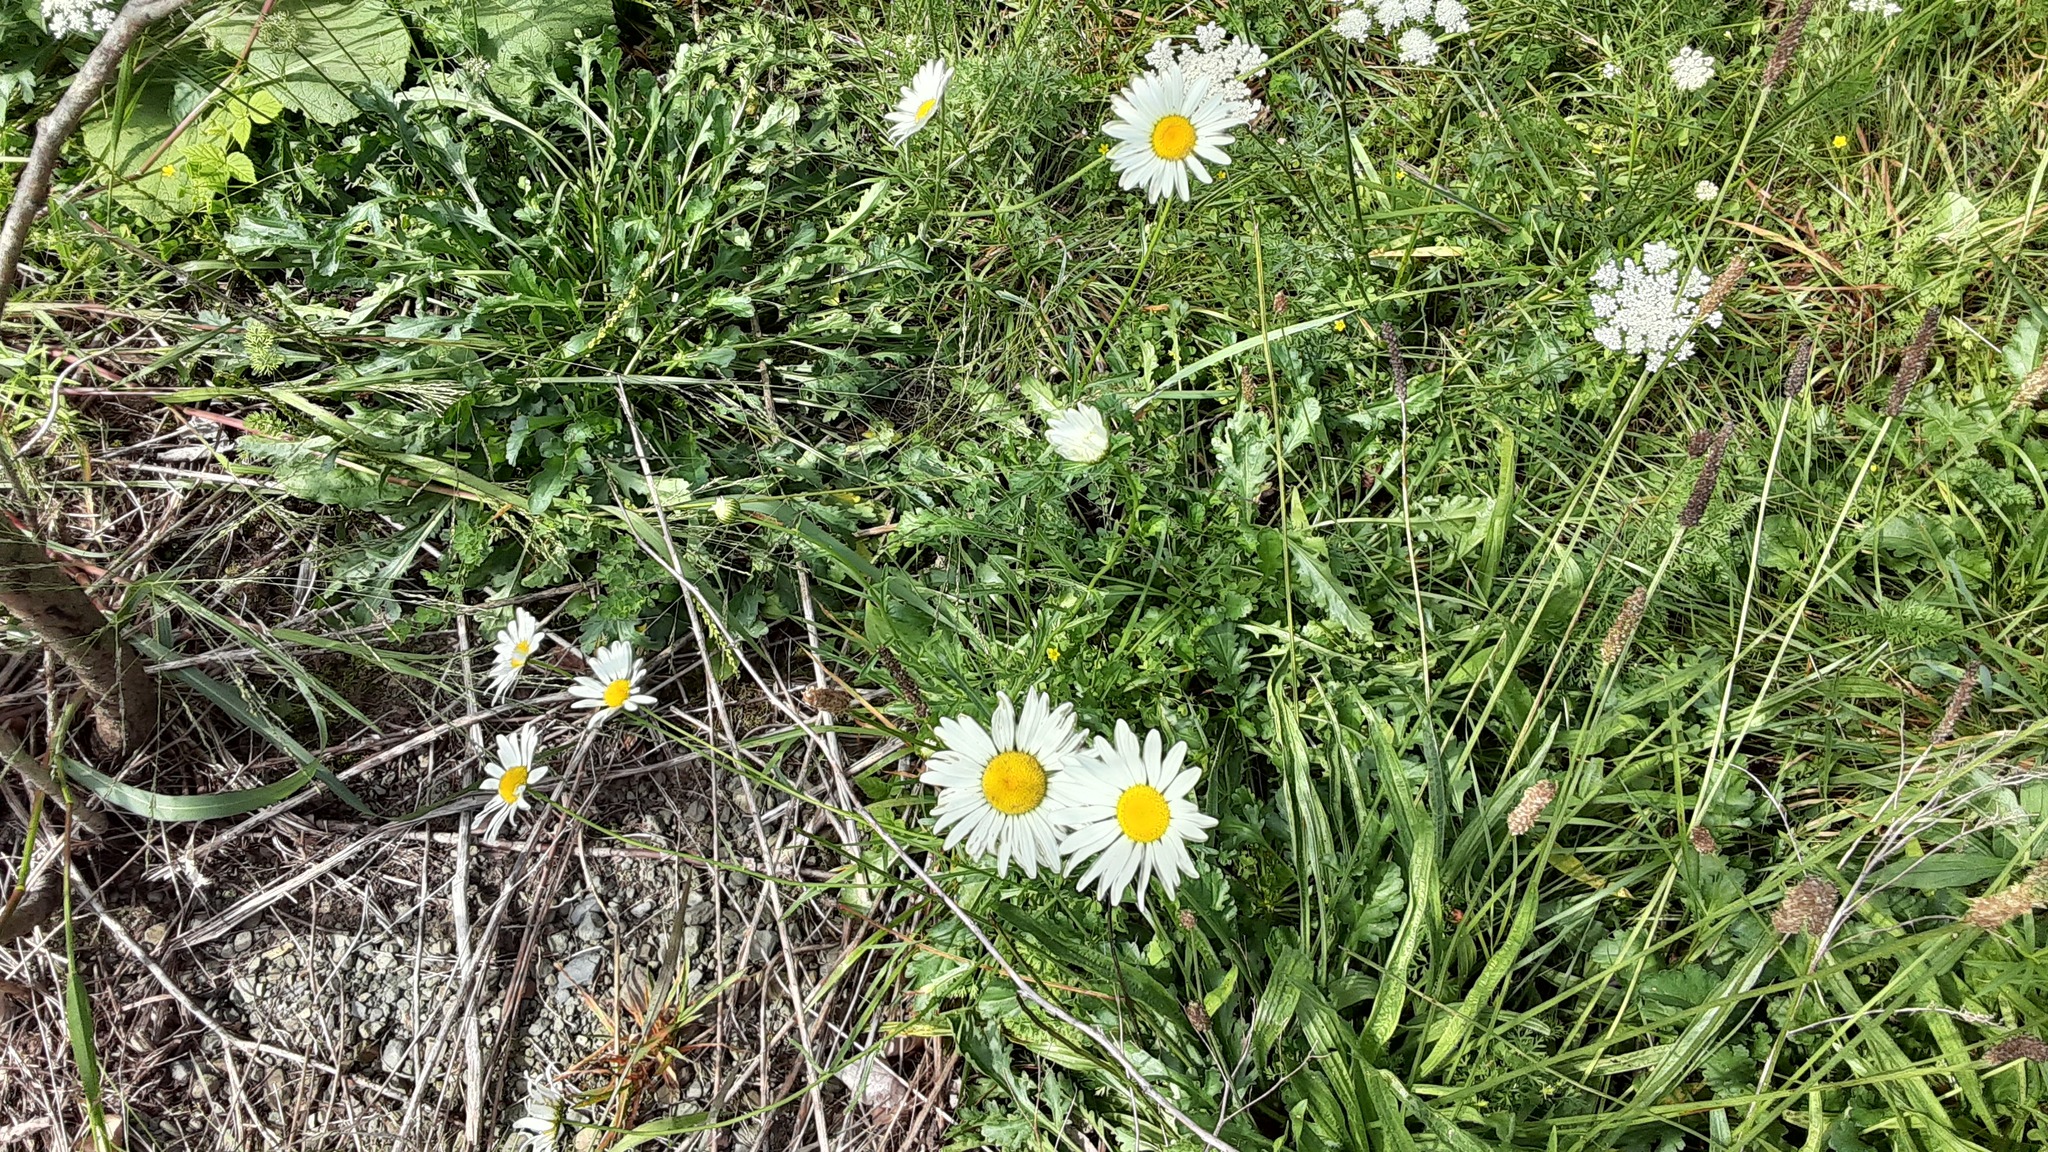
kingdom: Plantae
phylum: Tracheophyta
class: Magnoliopsida
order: Asterales
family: Asteraceae
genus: Leucanthemum
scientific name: Leucanthemum vulgare
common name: Oxeye daisy
